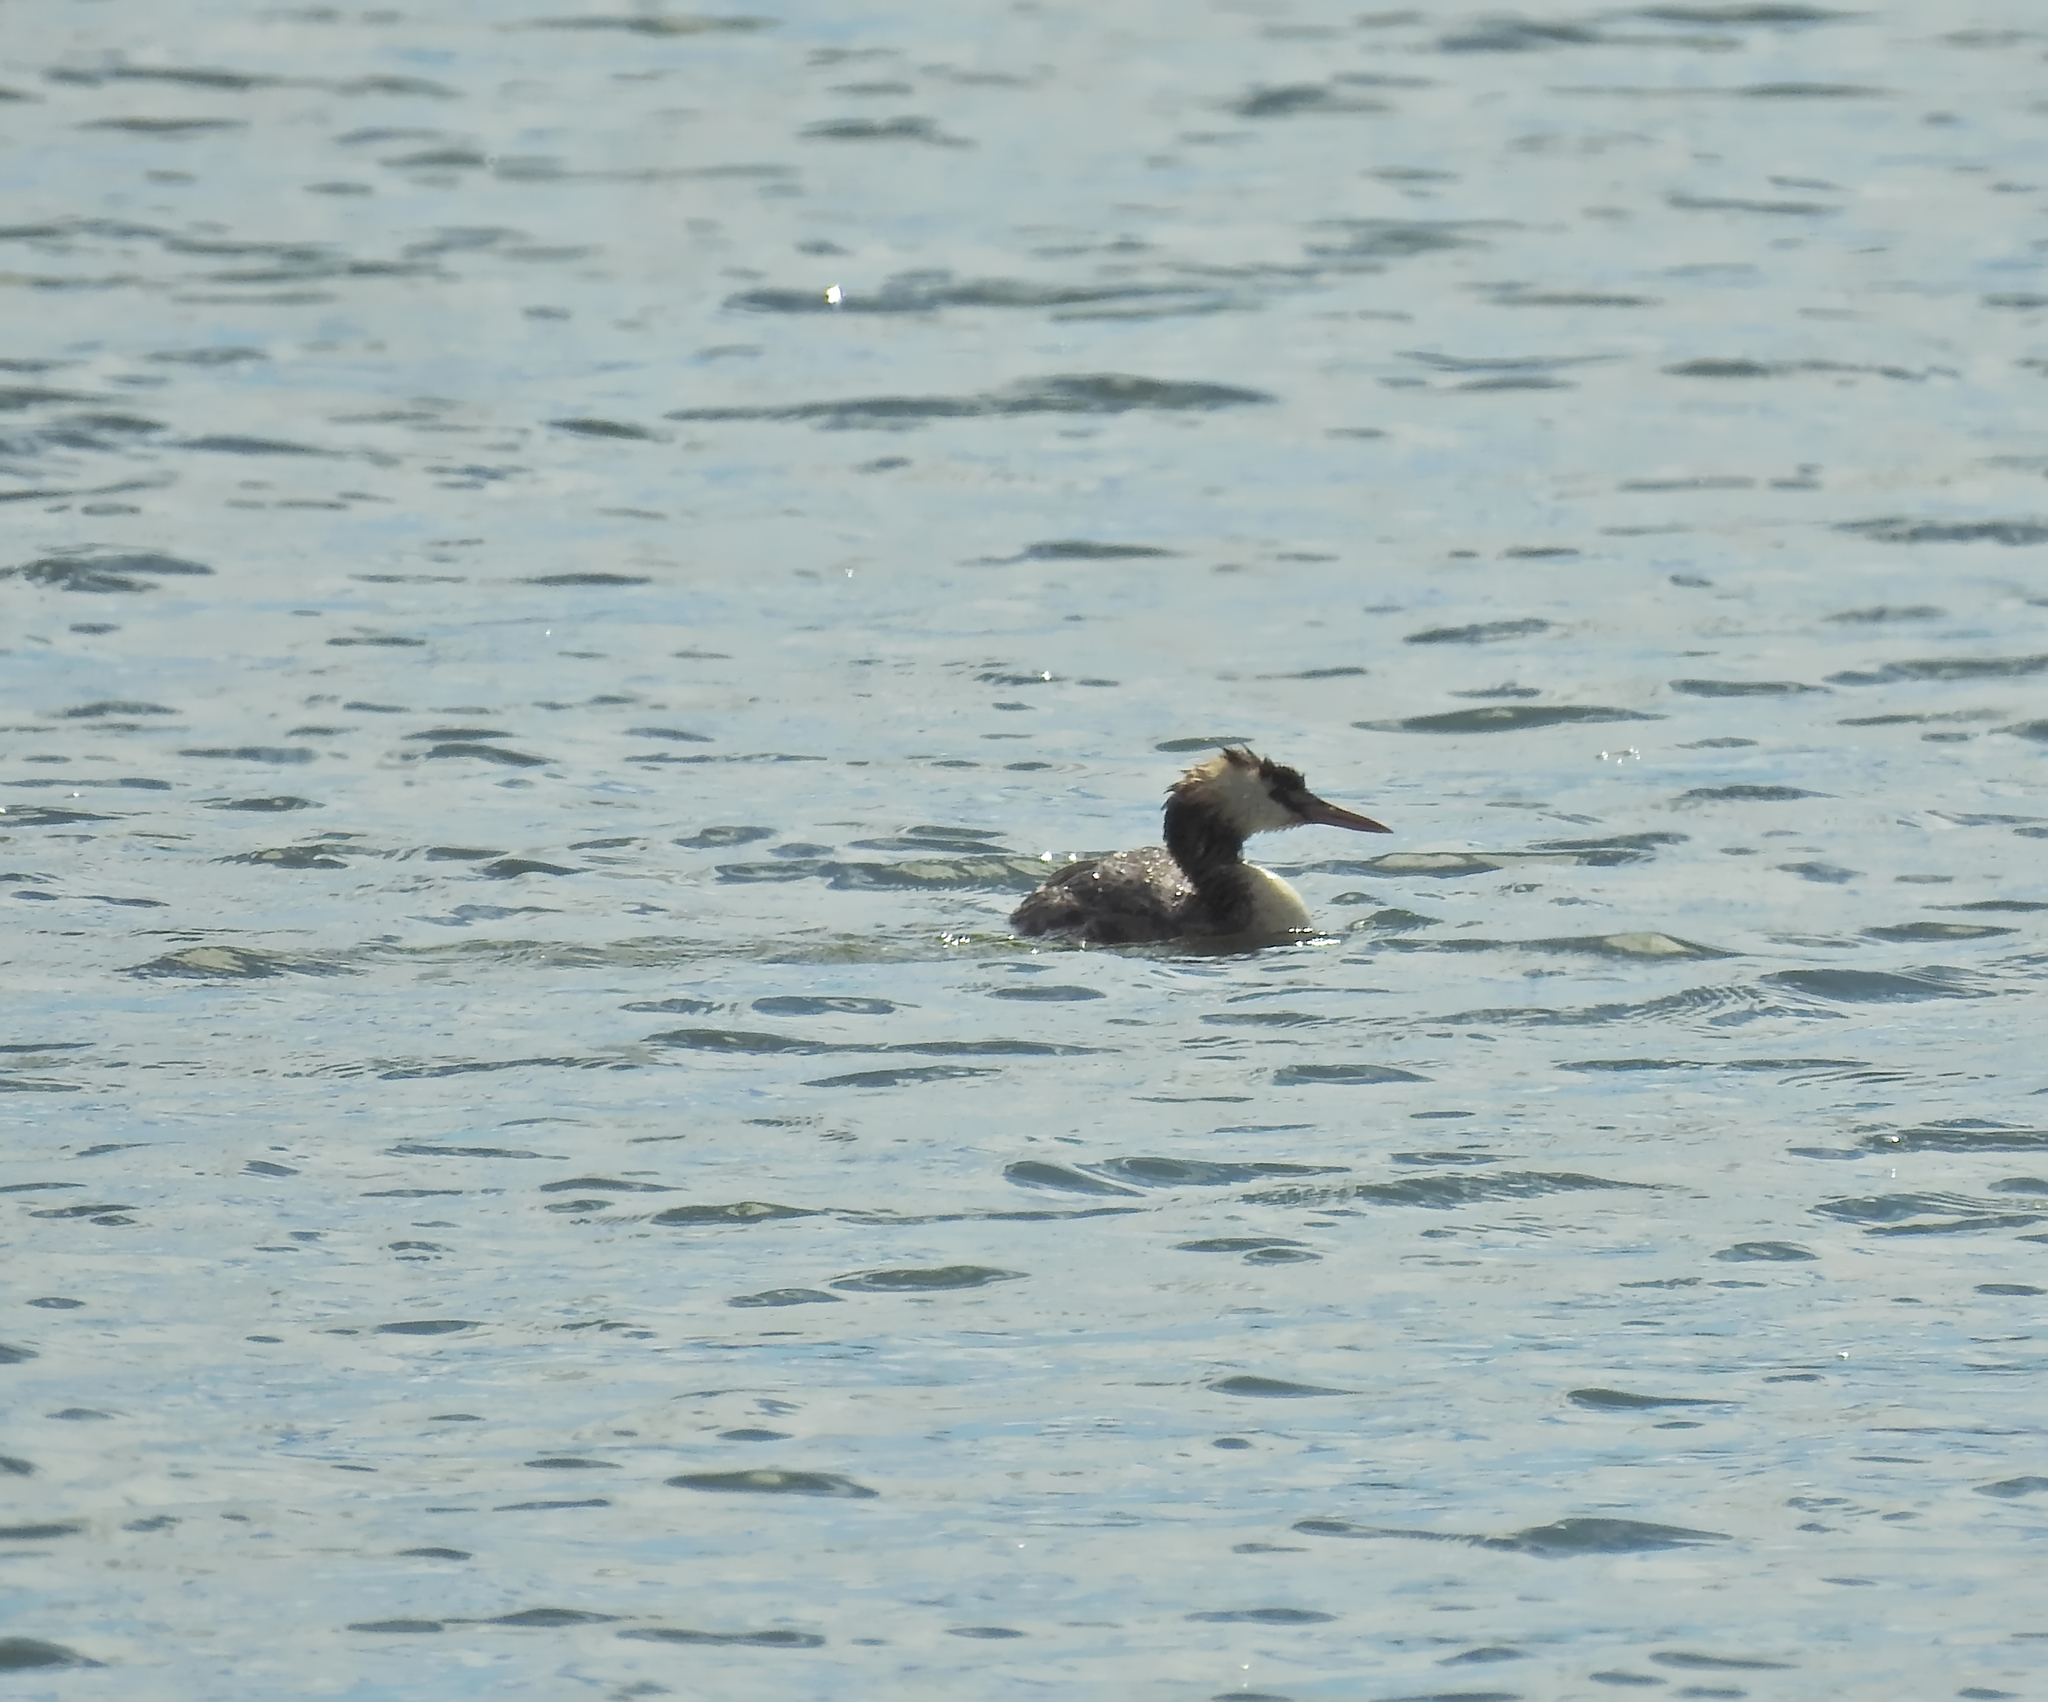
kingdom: Animalia
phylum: Chordata
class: Aves
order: Podicipediformes
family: Podicipedidae
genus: Podiceps
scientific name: Podiceps cristatus
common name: Great crested grebe
